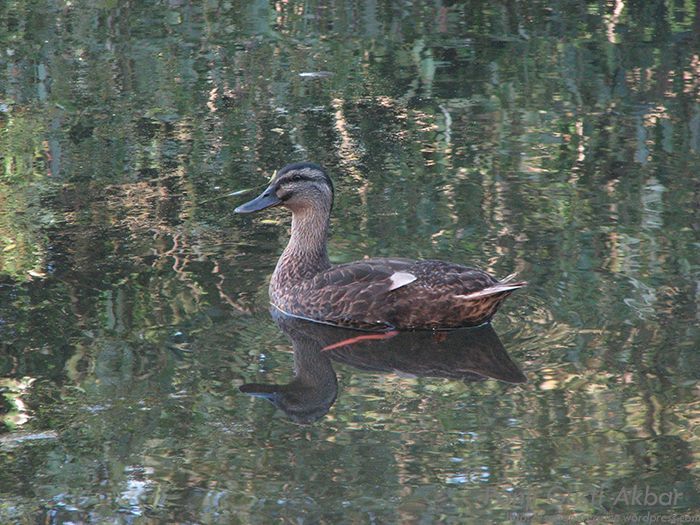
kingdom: Animalia
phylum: Chordata
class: Aves
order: Anseriformes
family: Anatidae
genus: Anas
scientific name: Anas platyrhynchos
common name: Mallard
